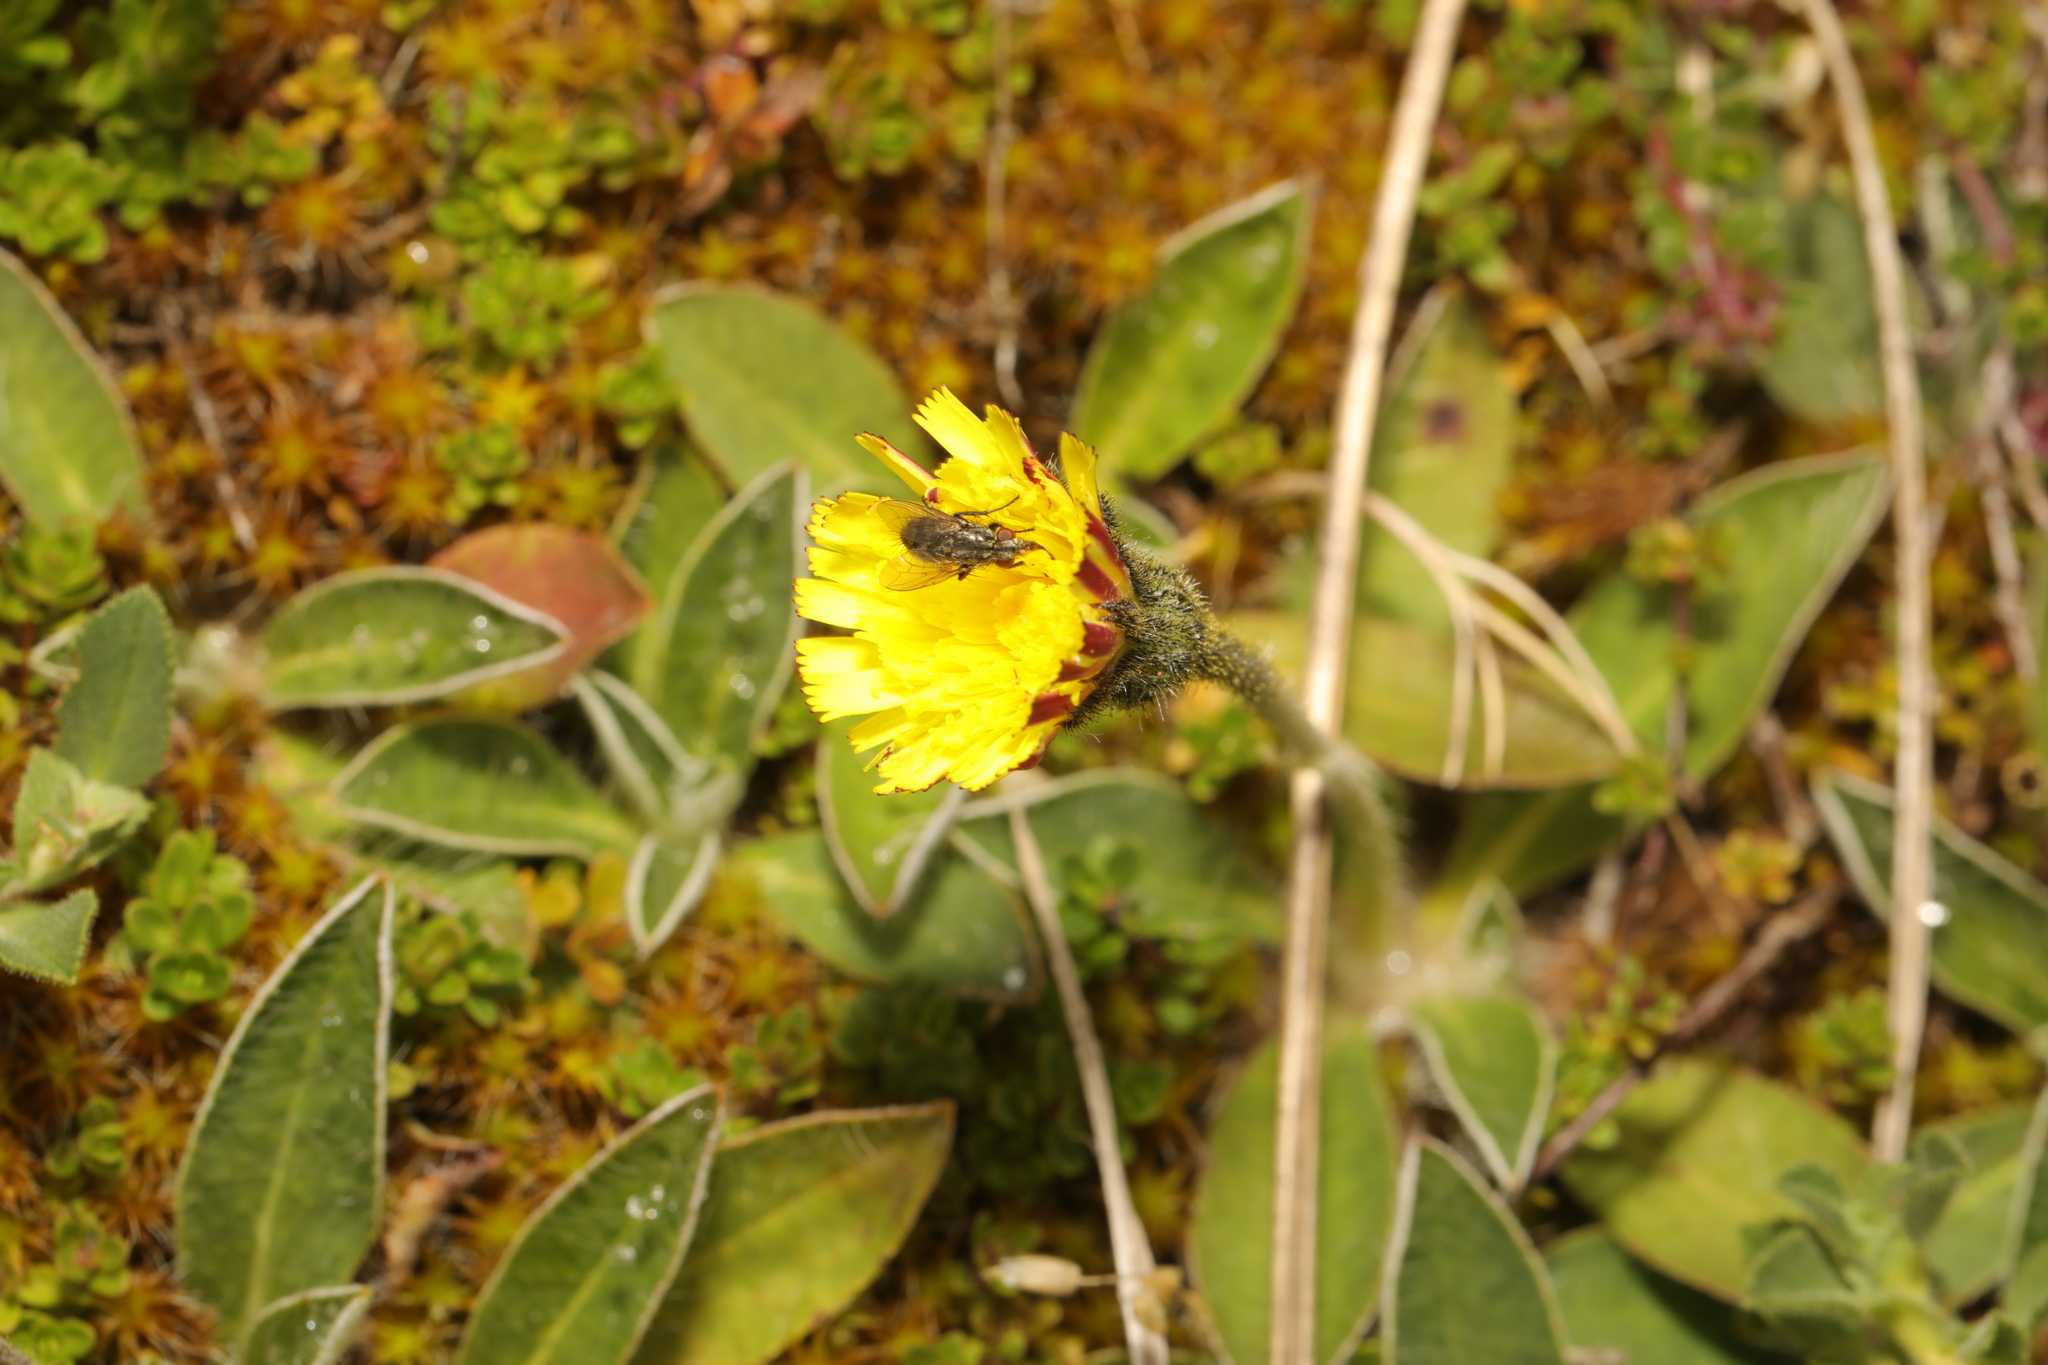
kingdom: Plantae
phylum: Tracheophyta
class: Magnoliopsida
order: Asterales
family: Asteraceae
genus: Pilosella
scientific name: Pilosella officinarum
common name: Mouse-ear hawkweed
